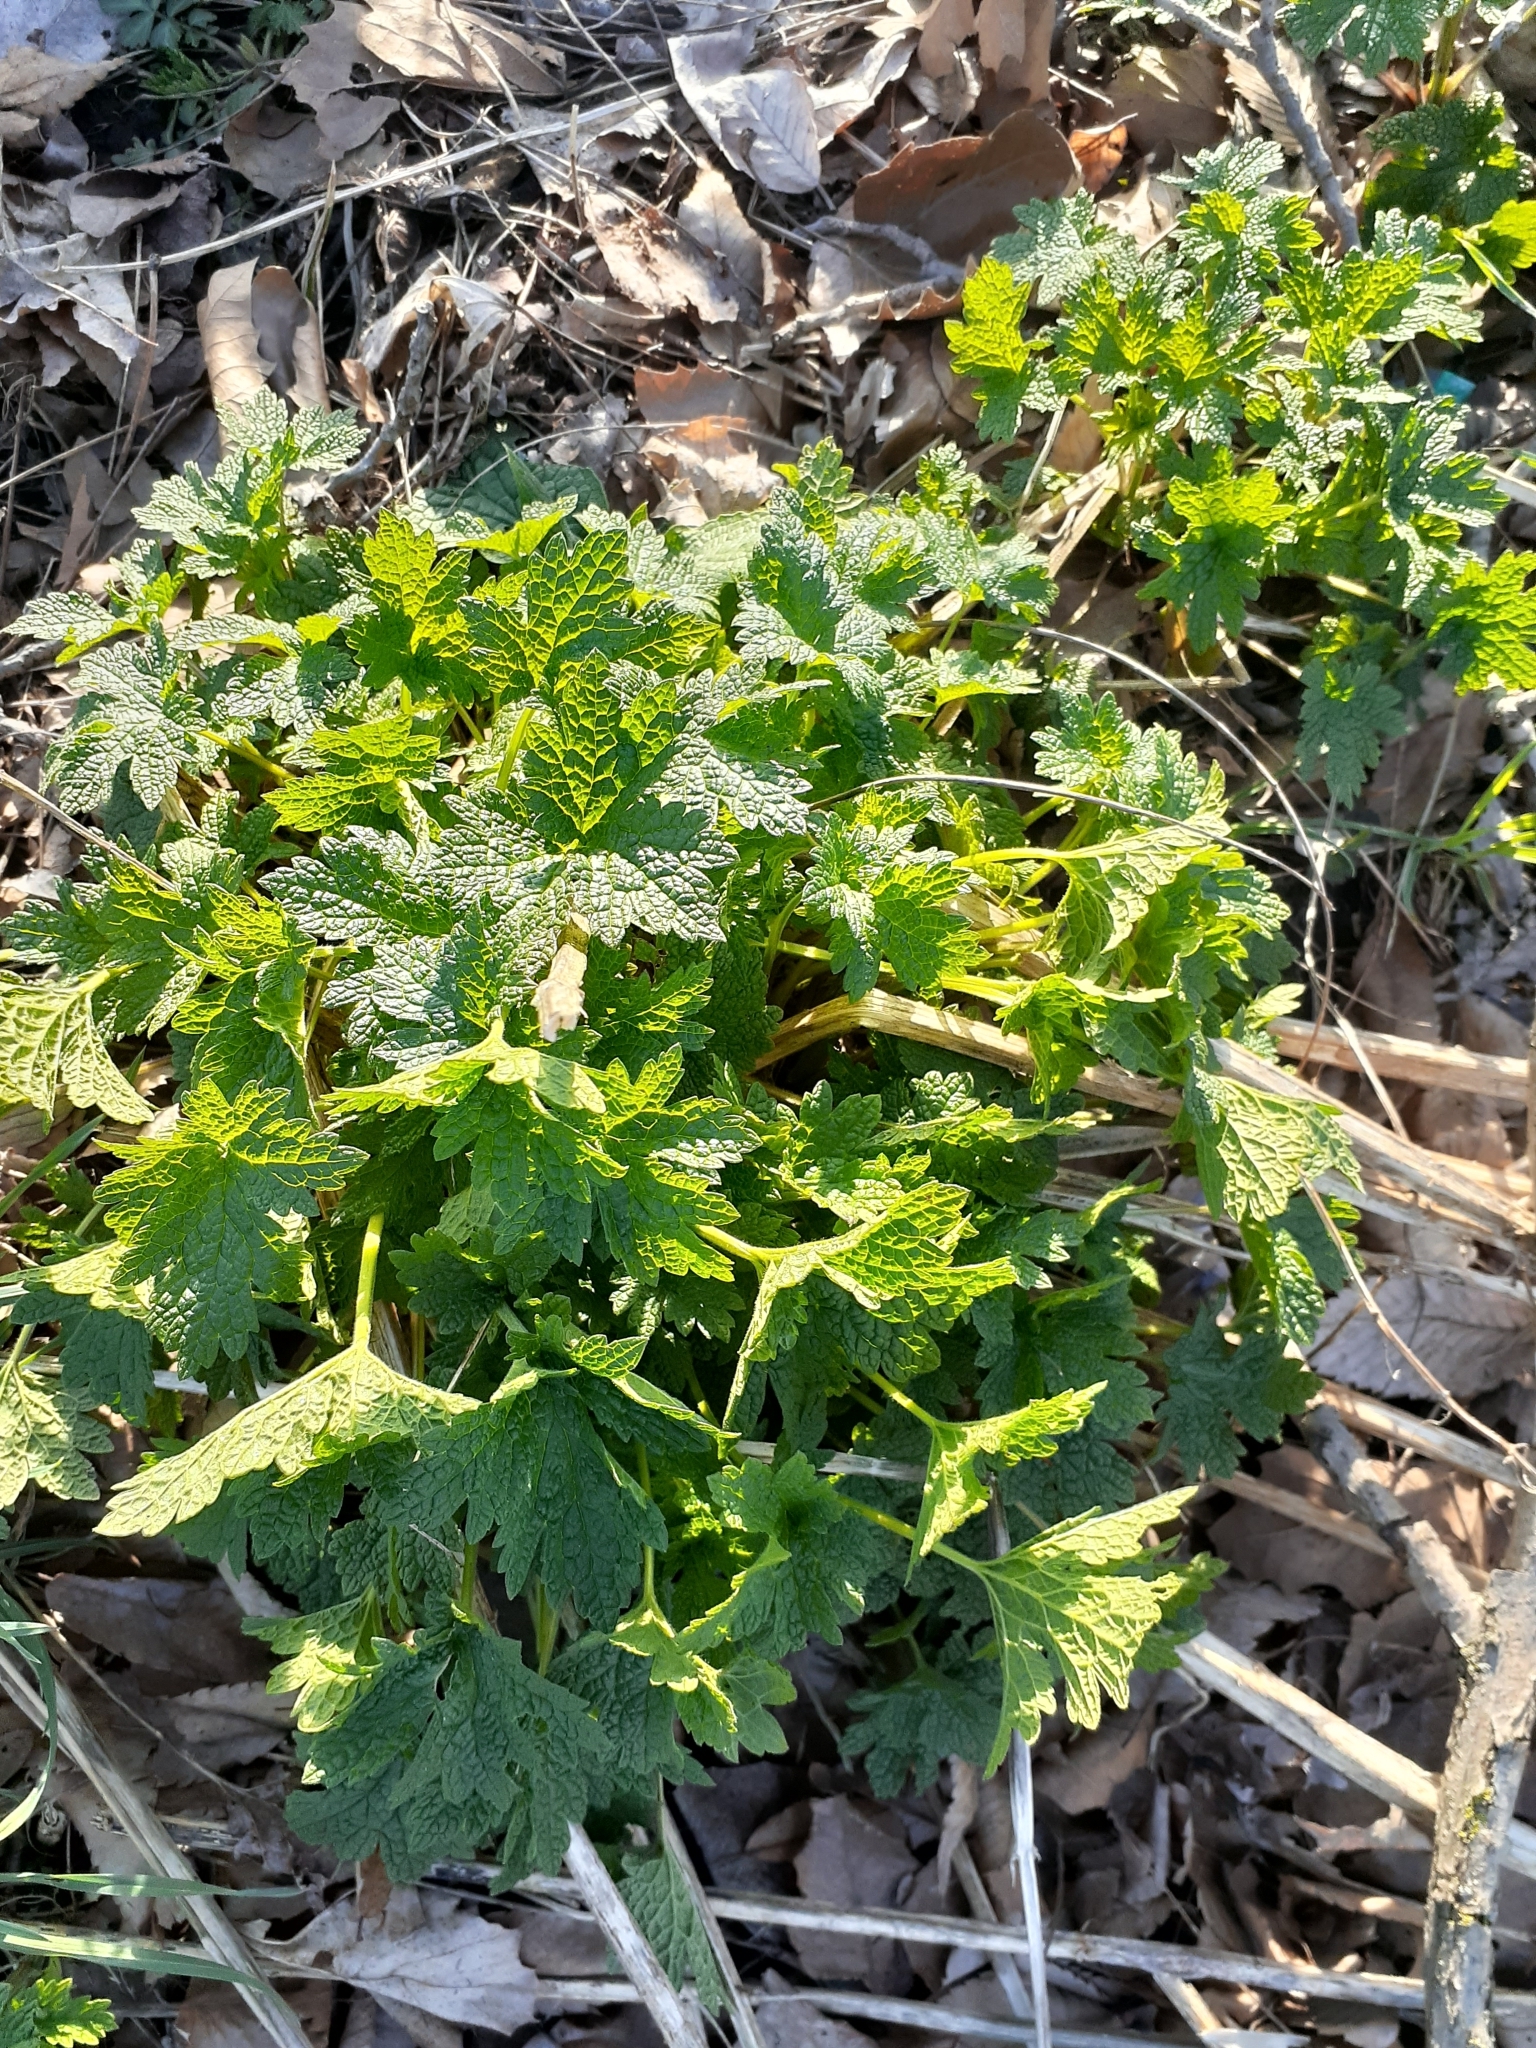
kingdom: Plantae
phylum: Tracheophyta
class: Magnoliopsida
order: Lamiales
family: Lamiaceae
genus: Leonurus
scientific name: Leonurus cardiaca
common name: Motherwort
